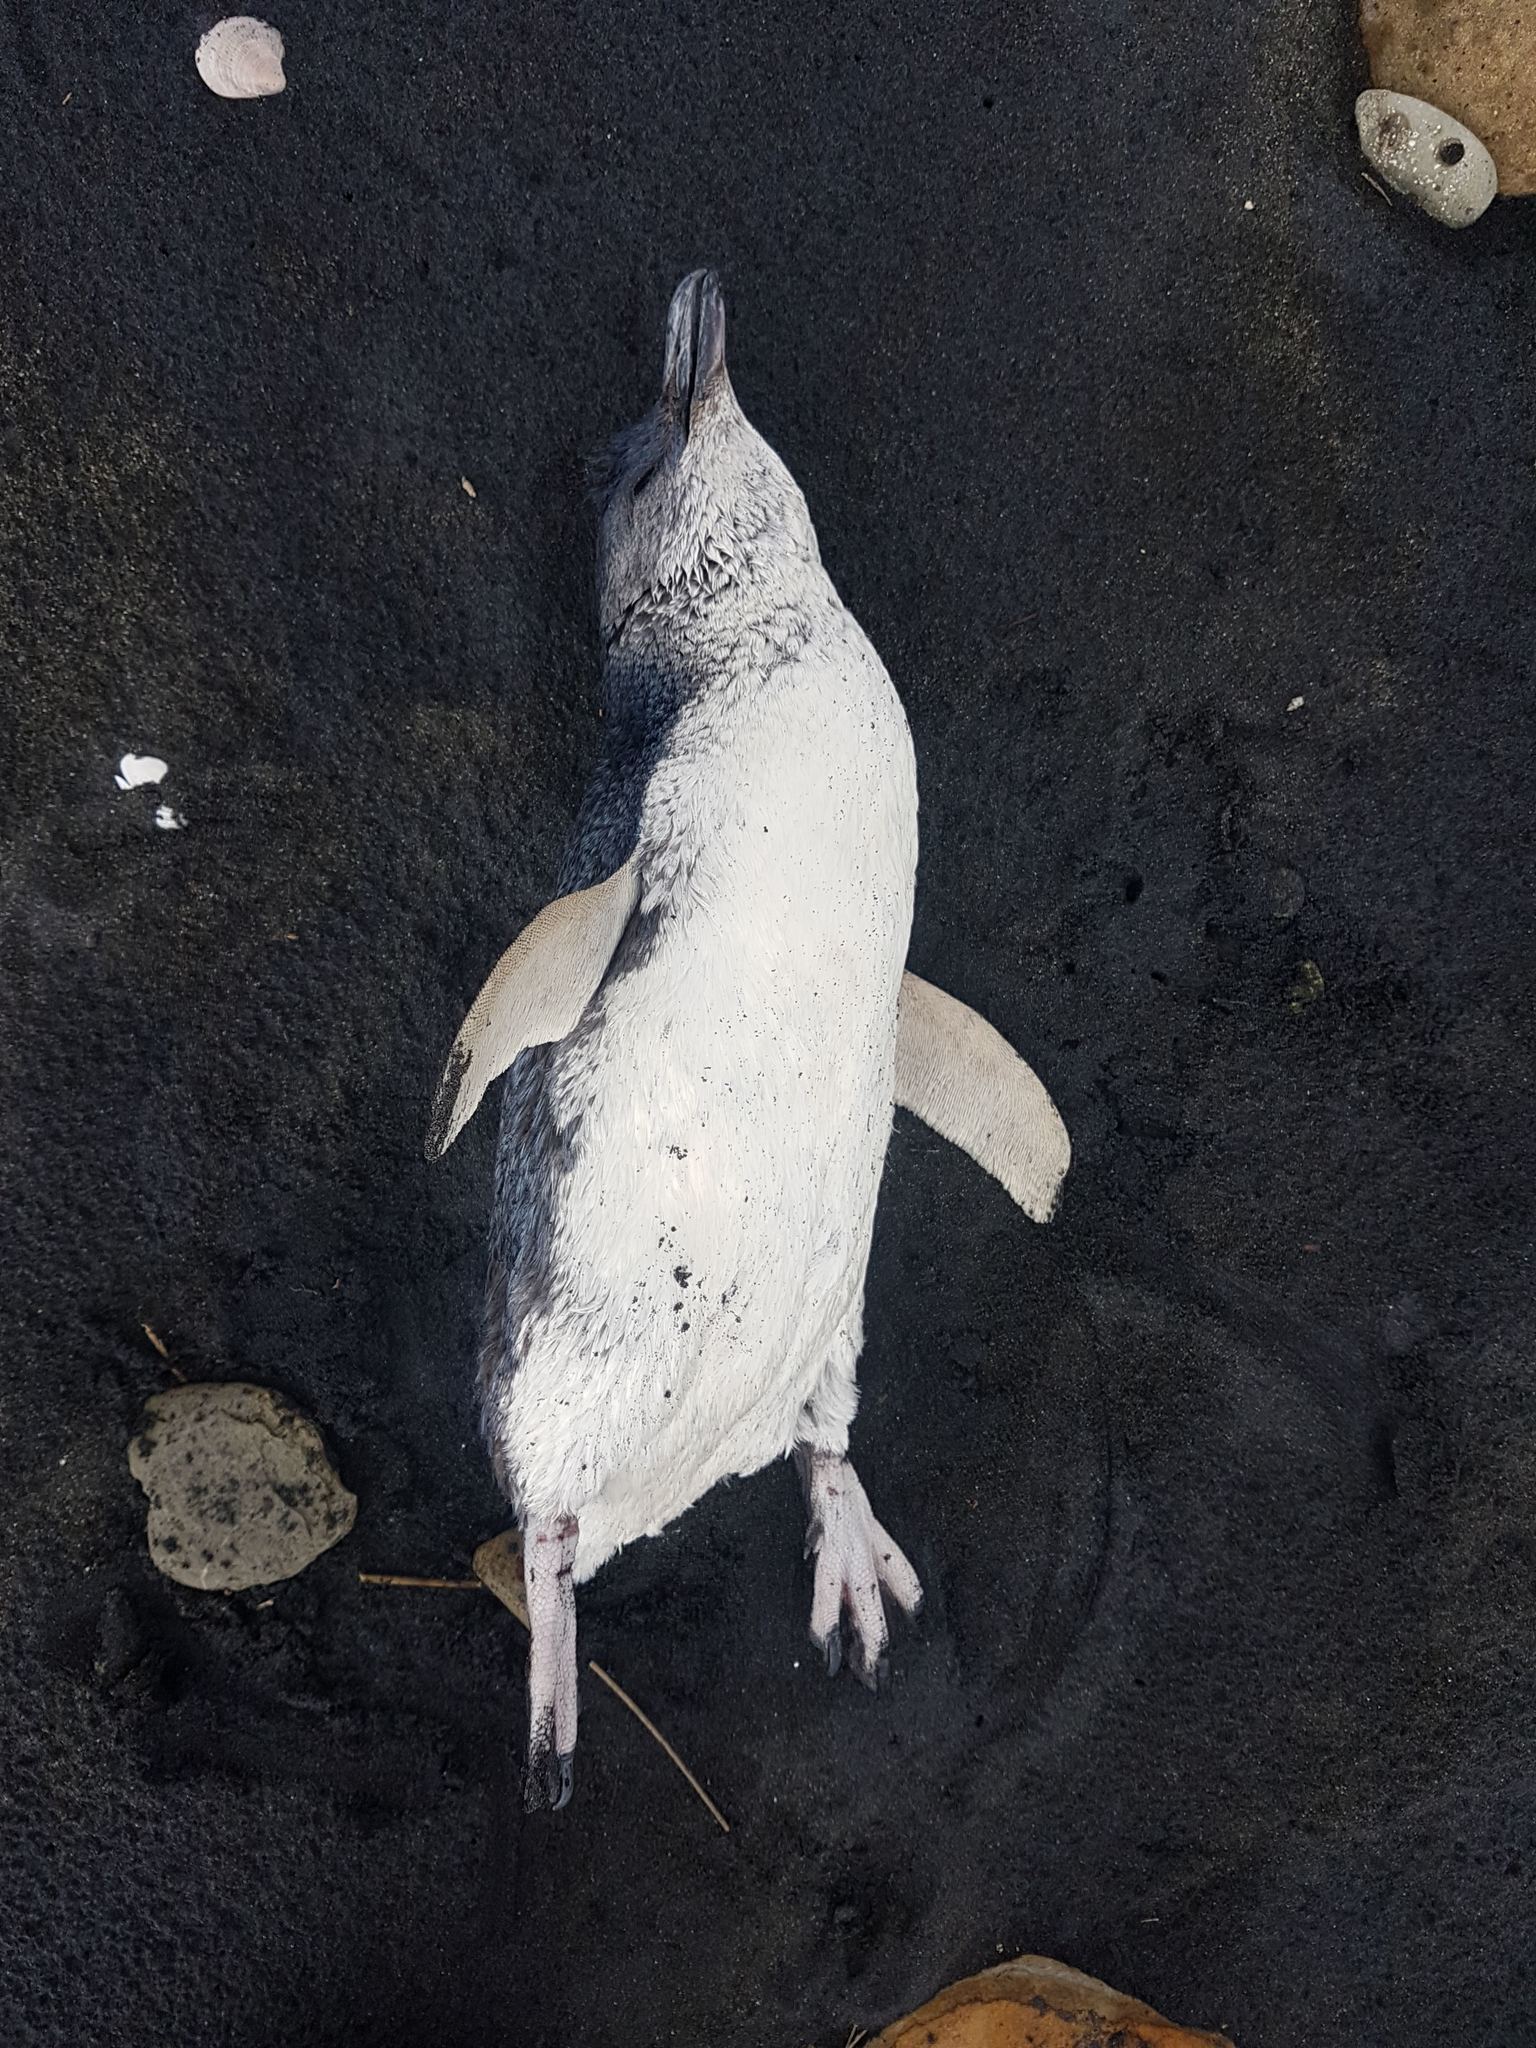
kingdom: Animalia
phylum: Chordata
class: Aves
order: Sphenisciformes
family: Spheniscidae
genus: Eudyptula
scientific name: Eudyptula minor
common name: Little penguin
